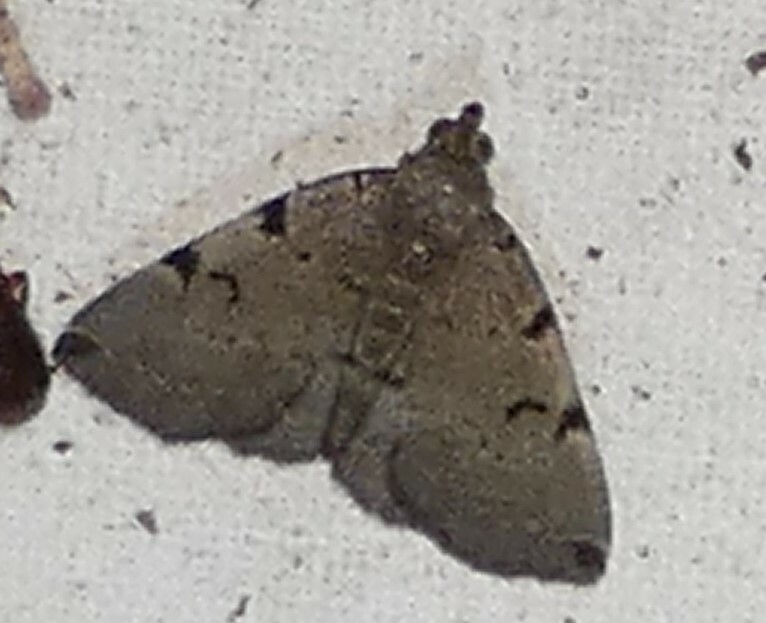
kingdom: Animalia
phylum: Arthropoda
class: Insecta
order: Lepidoptera
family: Erebidae
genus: Zanclognatha
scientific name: Zanclognatha lituralis
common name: Lettered fan-foot
